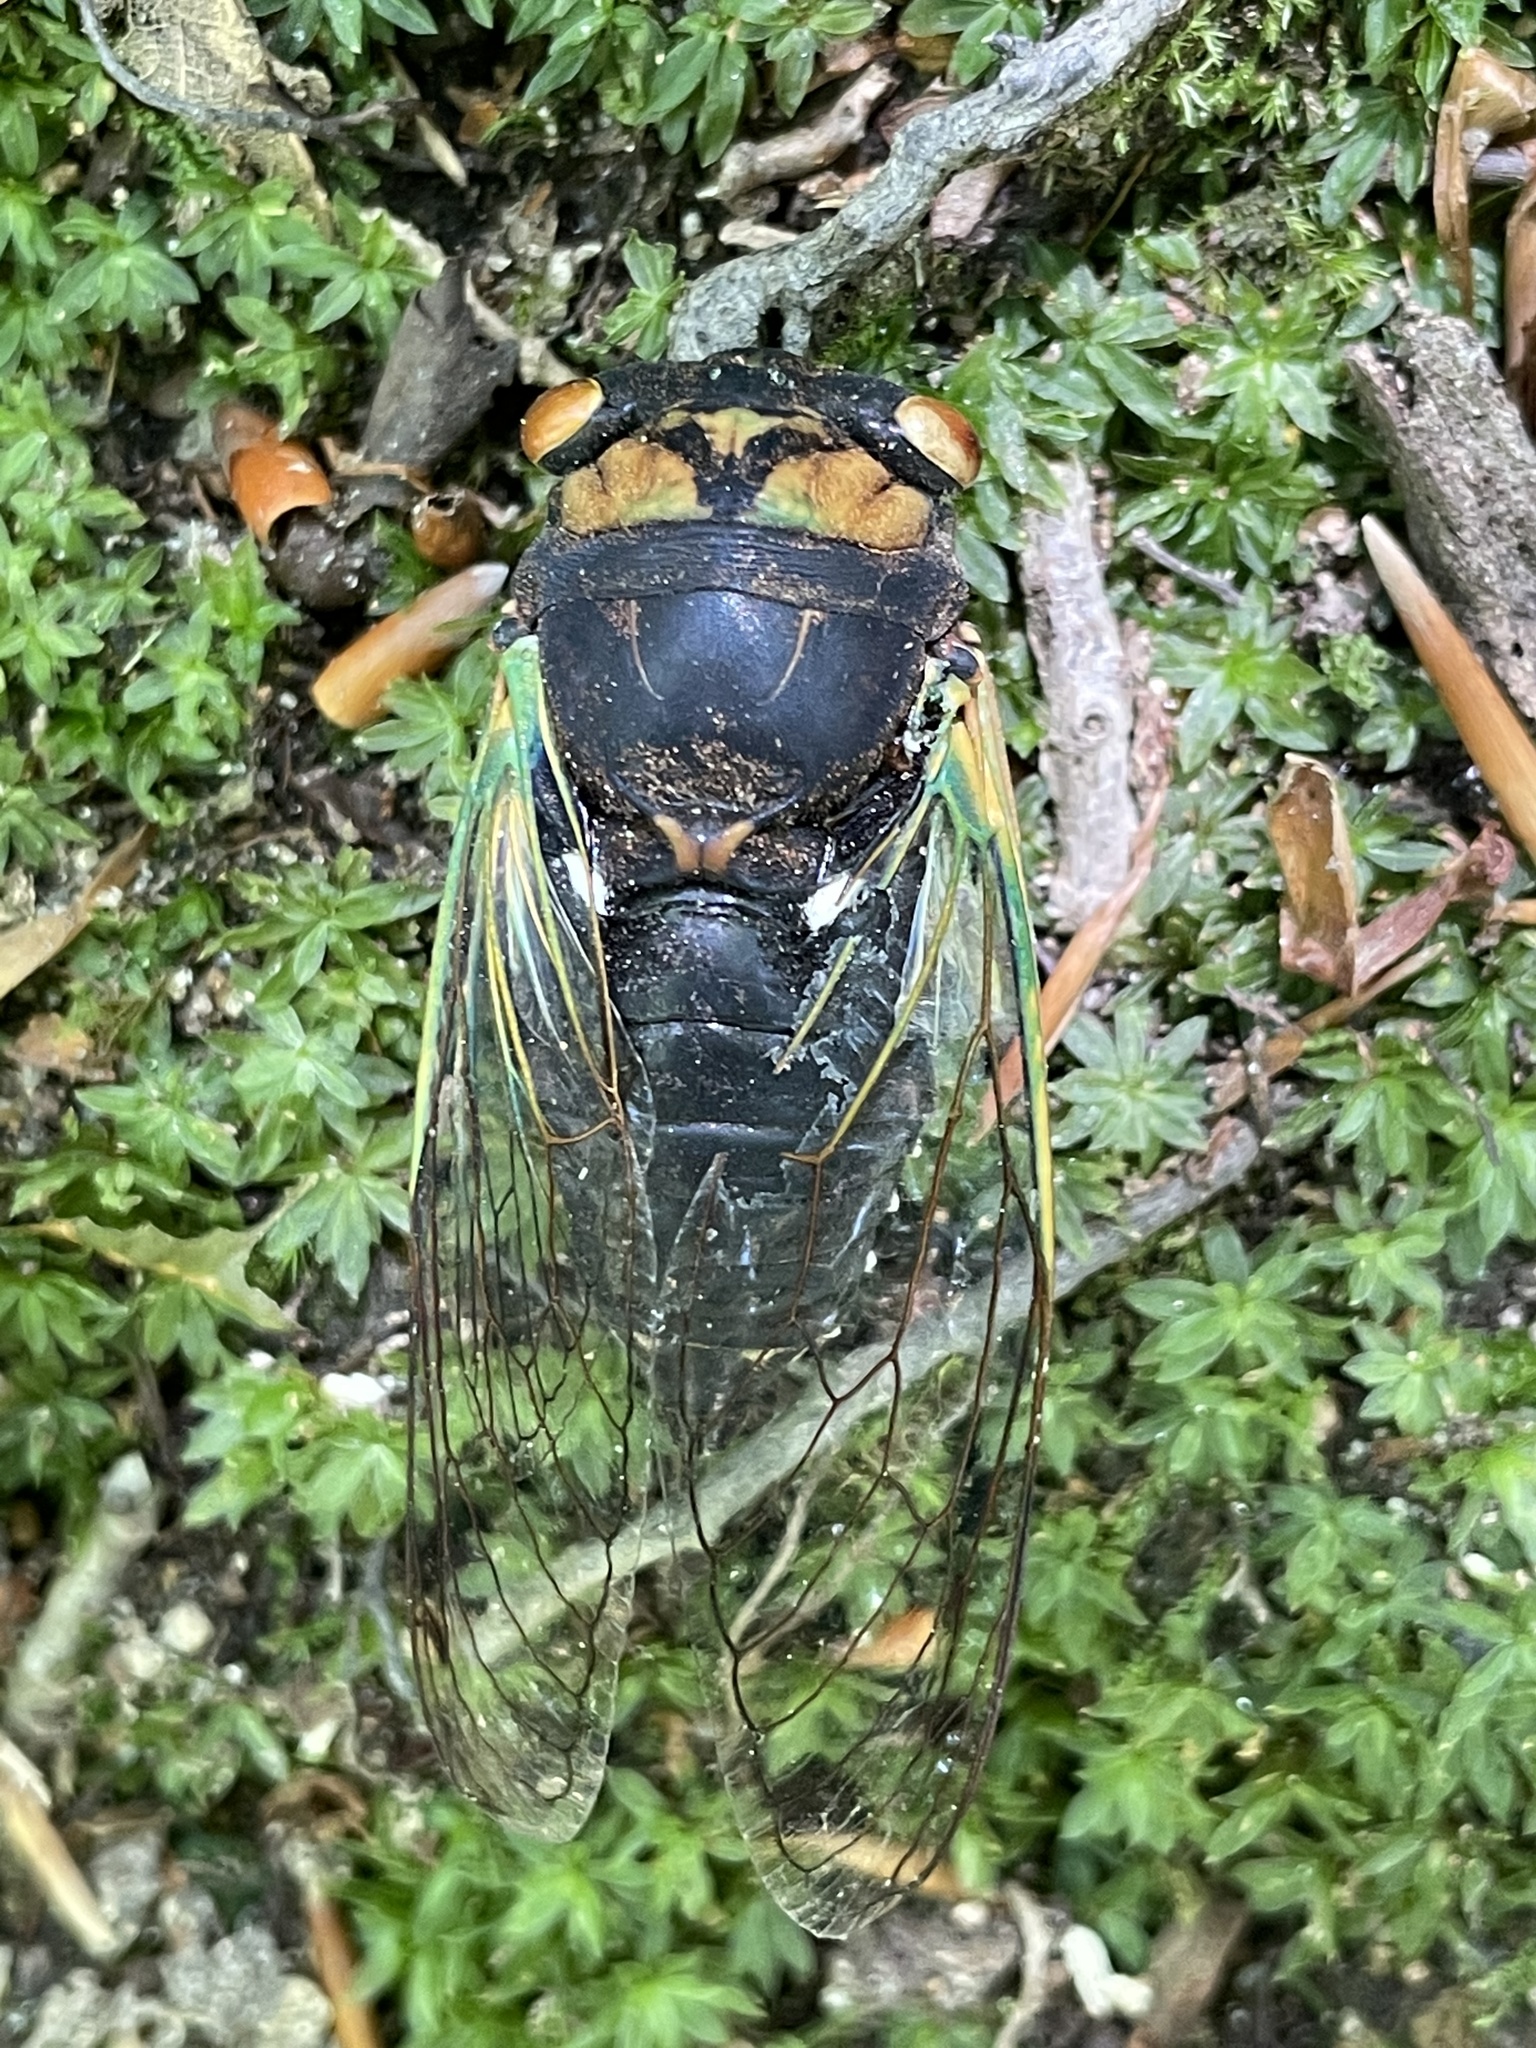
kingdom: Animalia
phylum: Arthropoda
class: Insecta
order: Hemiptera
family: Cicadidae
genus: Neotibicen
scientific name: Neotibicen tibicen
